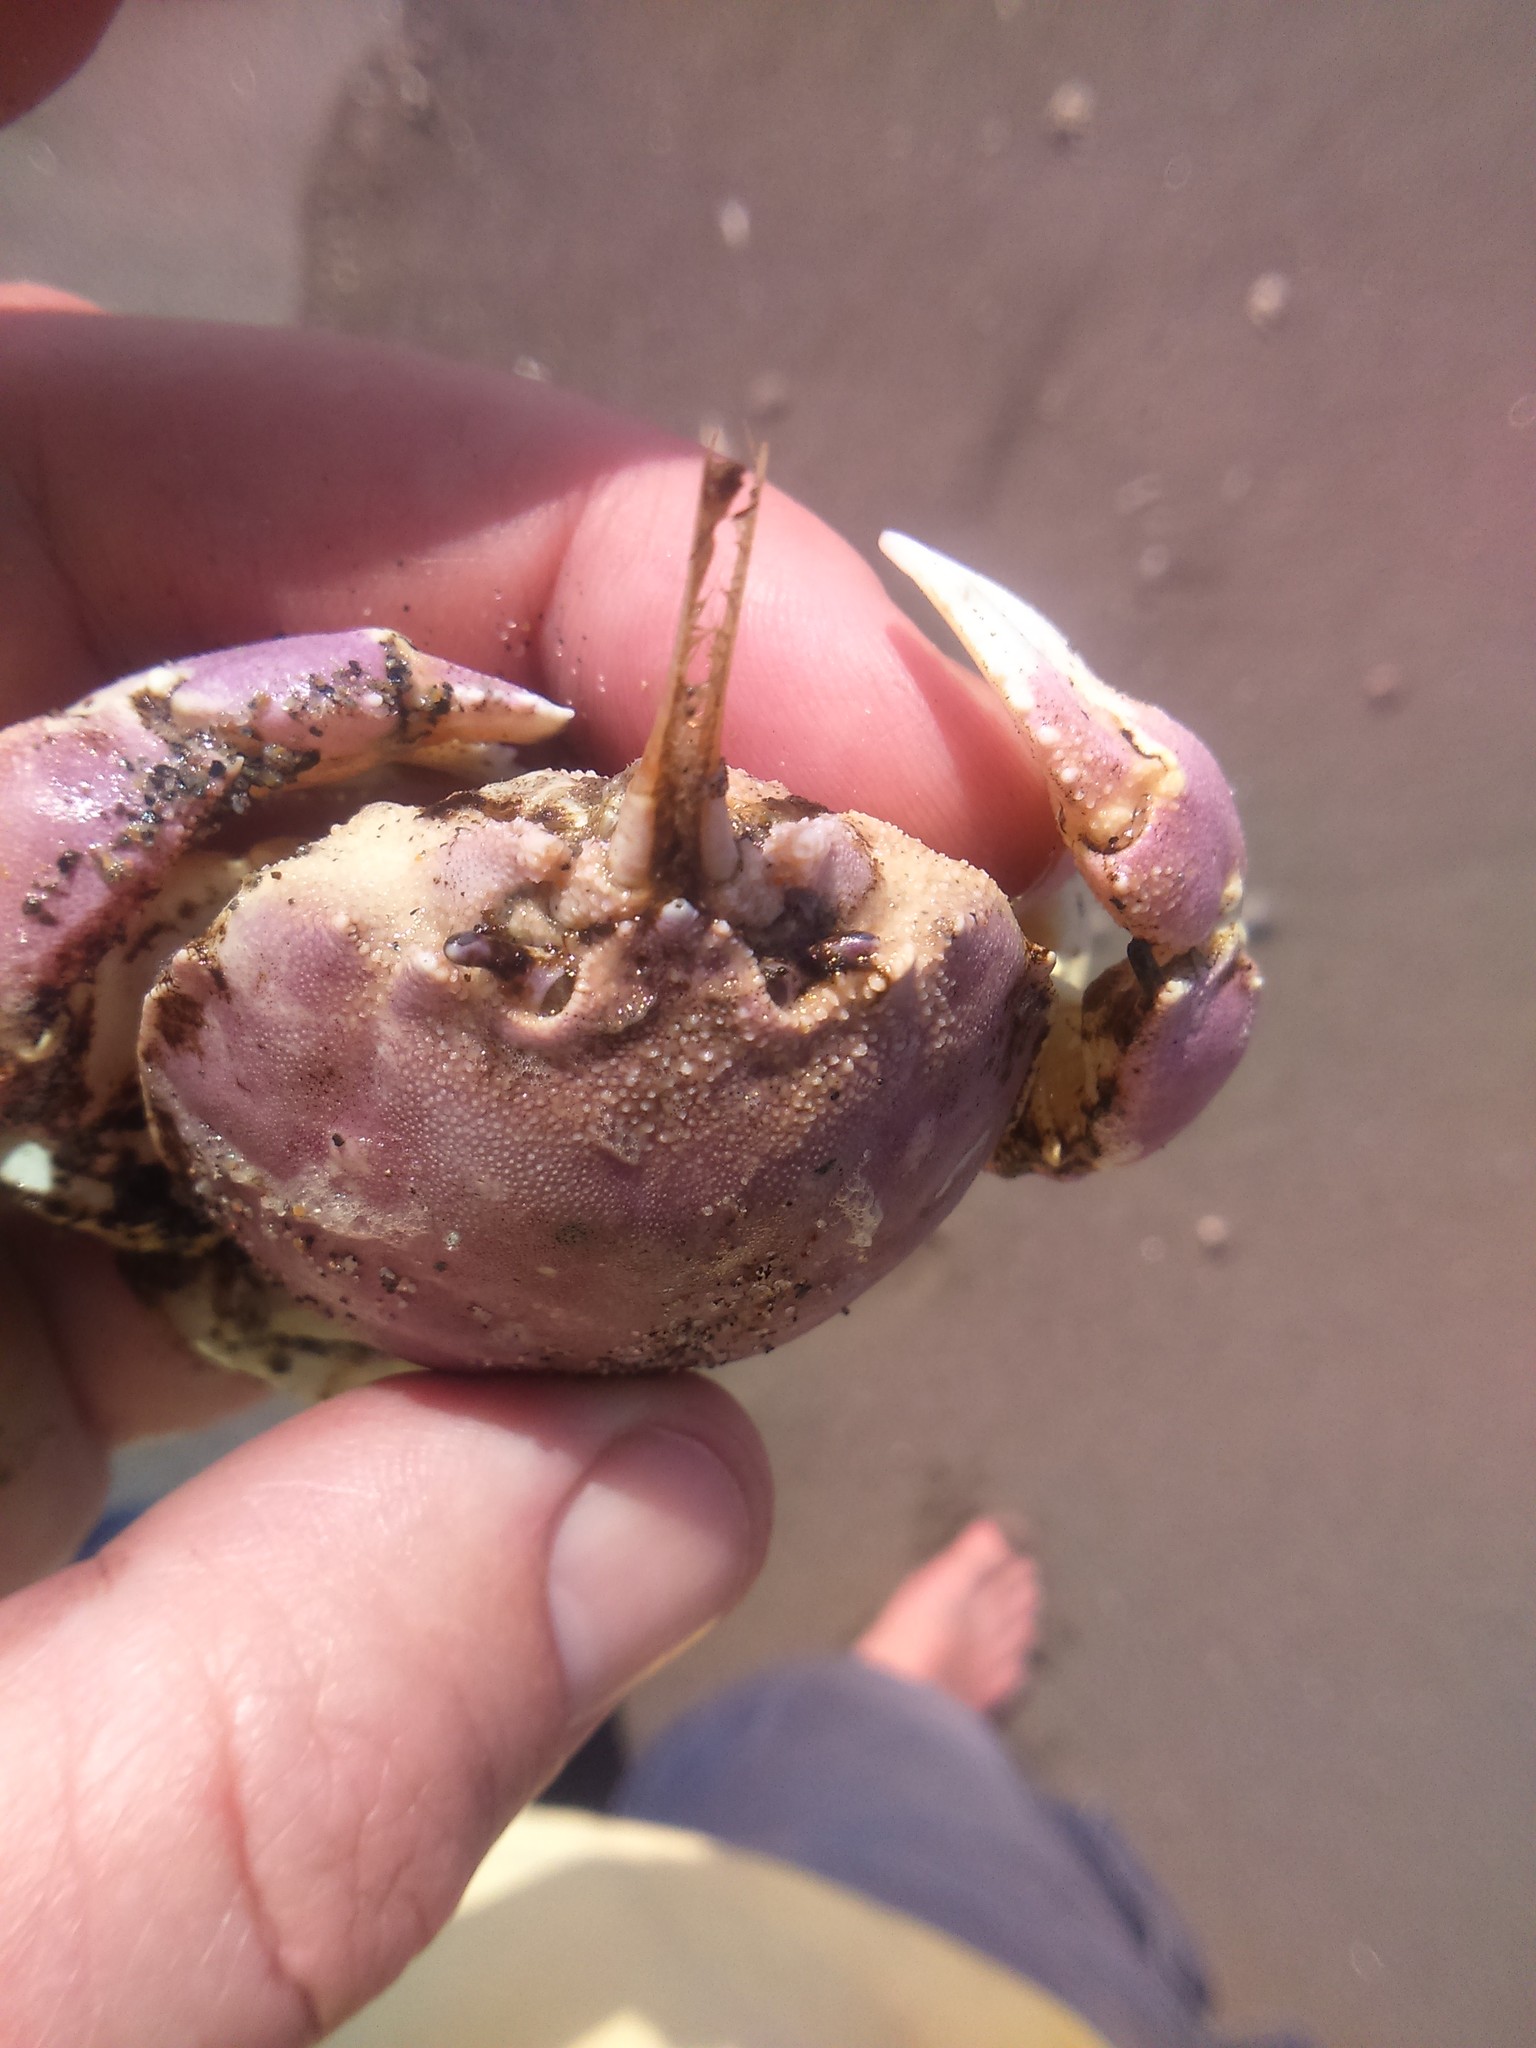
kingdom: Animalia
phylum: Arthropoda
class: Malacostraca
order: Decapoda
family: Atelecyclidae
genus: Pseudocorystes
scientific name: Pseudocorystes sicarius
